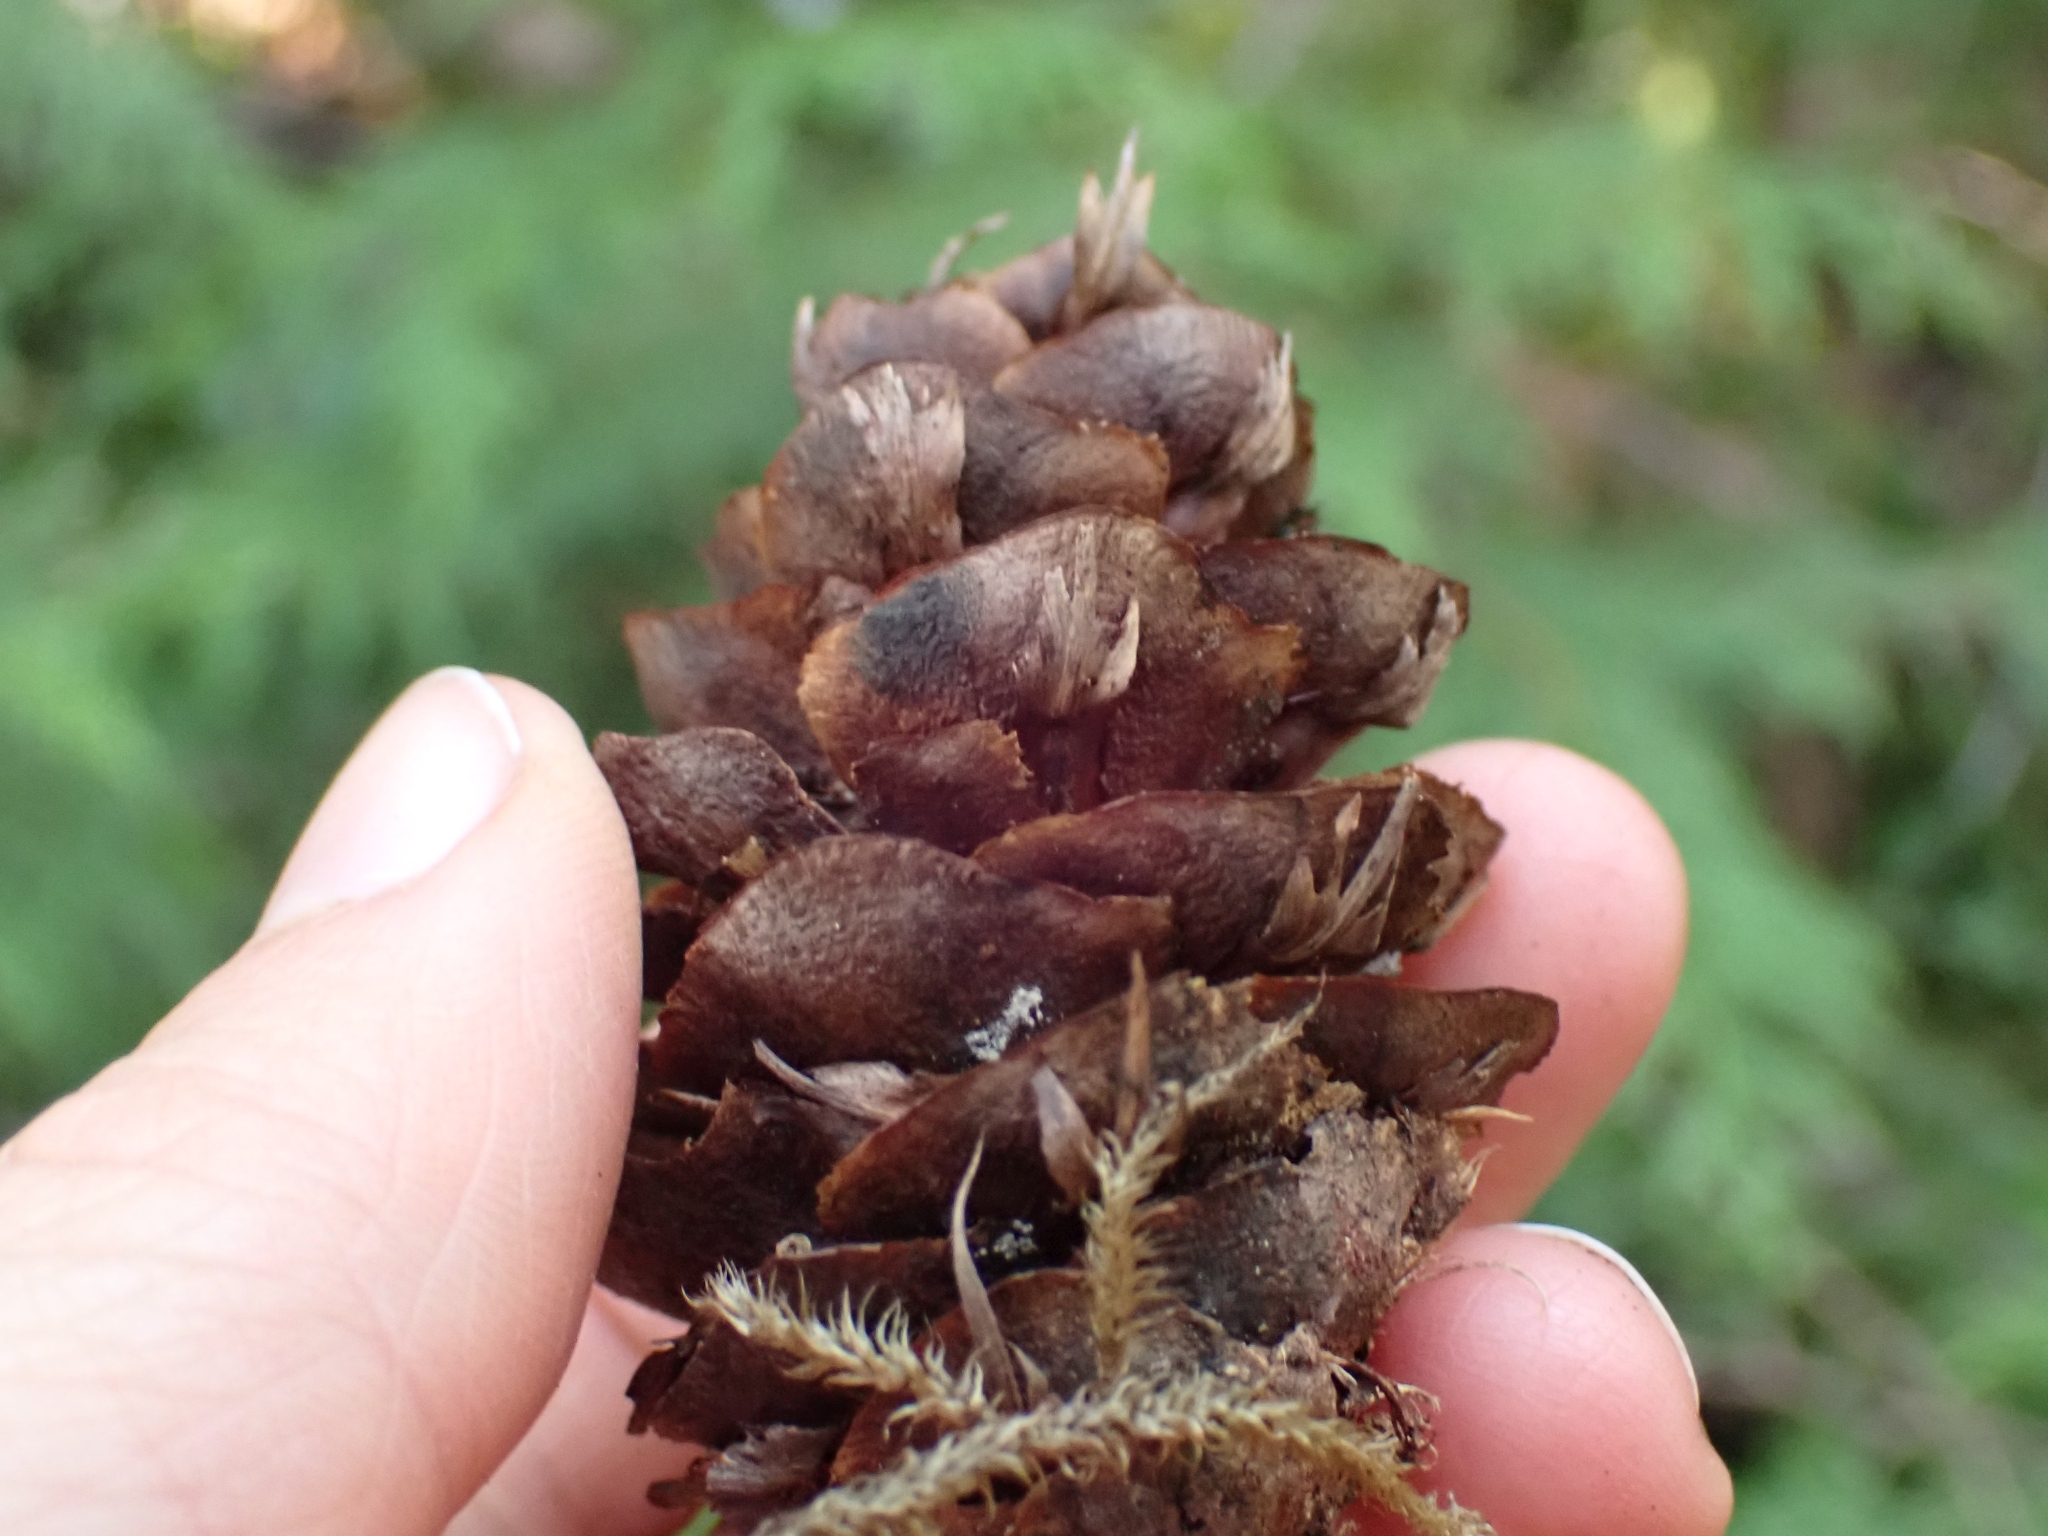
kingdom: Plantae
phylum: Tracheophyta
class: Pinopsida
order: Pinales
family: Pinaceae
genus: Pseudotsuga
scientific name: Pseudotsuga menziesii
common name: Douglas fir
